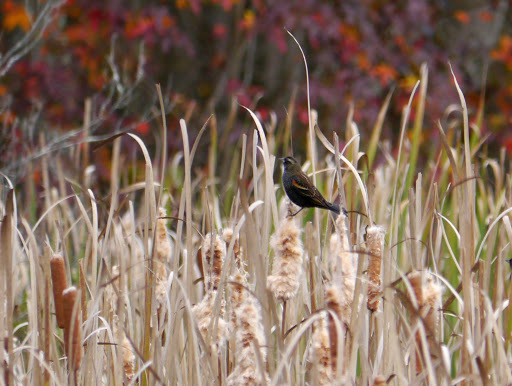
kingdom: Animalia
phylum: Chordata
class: Aves
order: Passeriformes
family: Icteridae
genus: Agelaius
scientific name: Agelaius phoeniceus
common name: Red-winged blackbird
